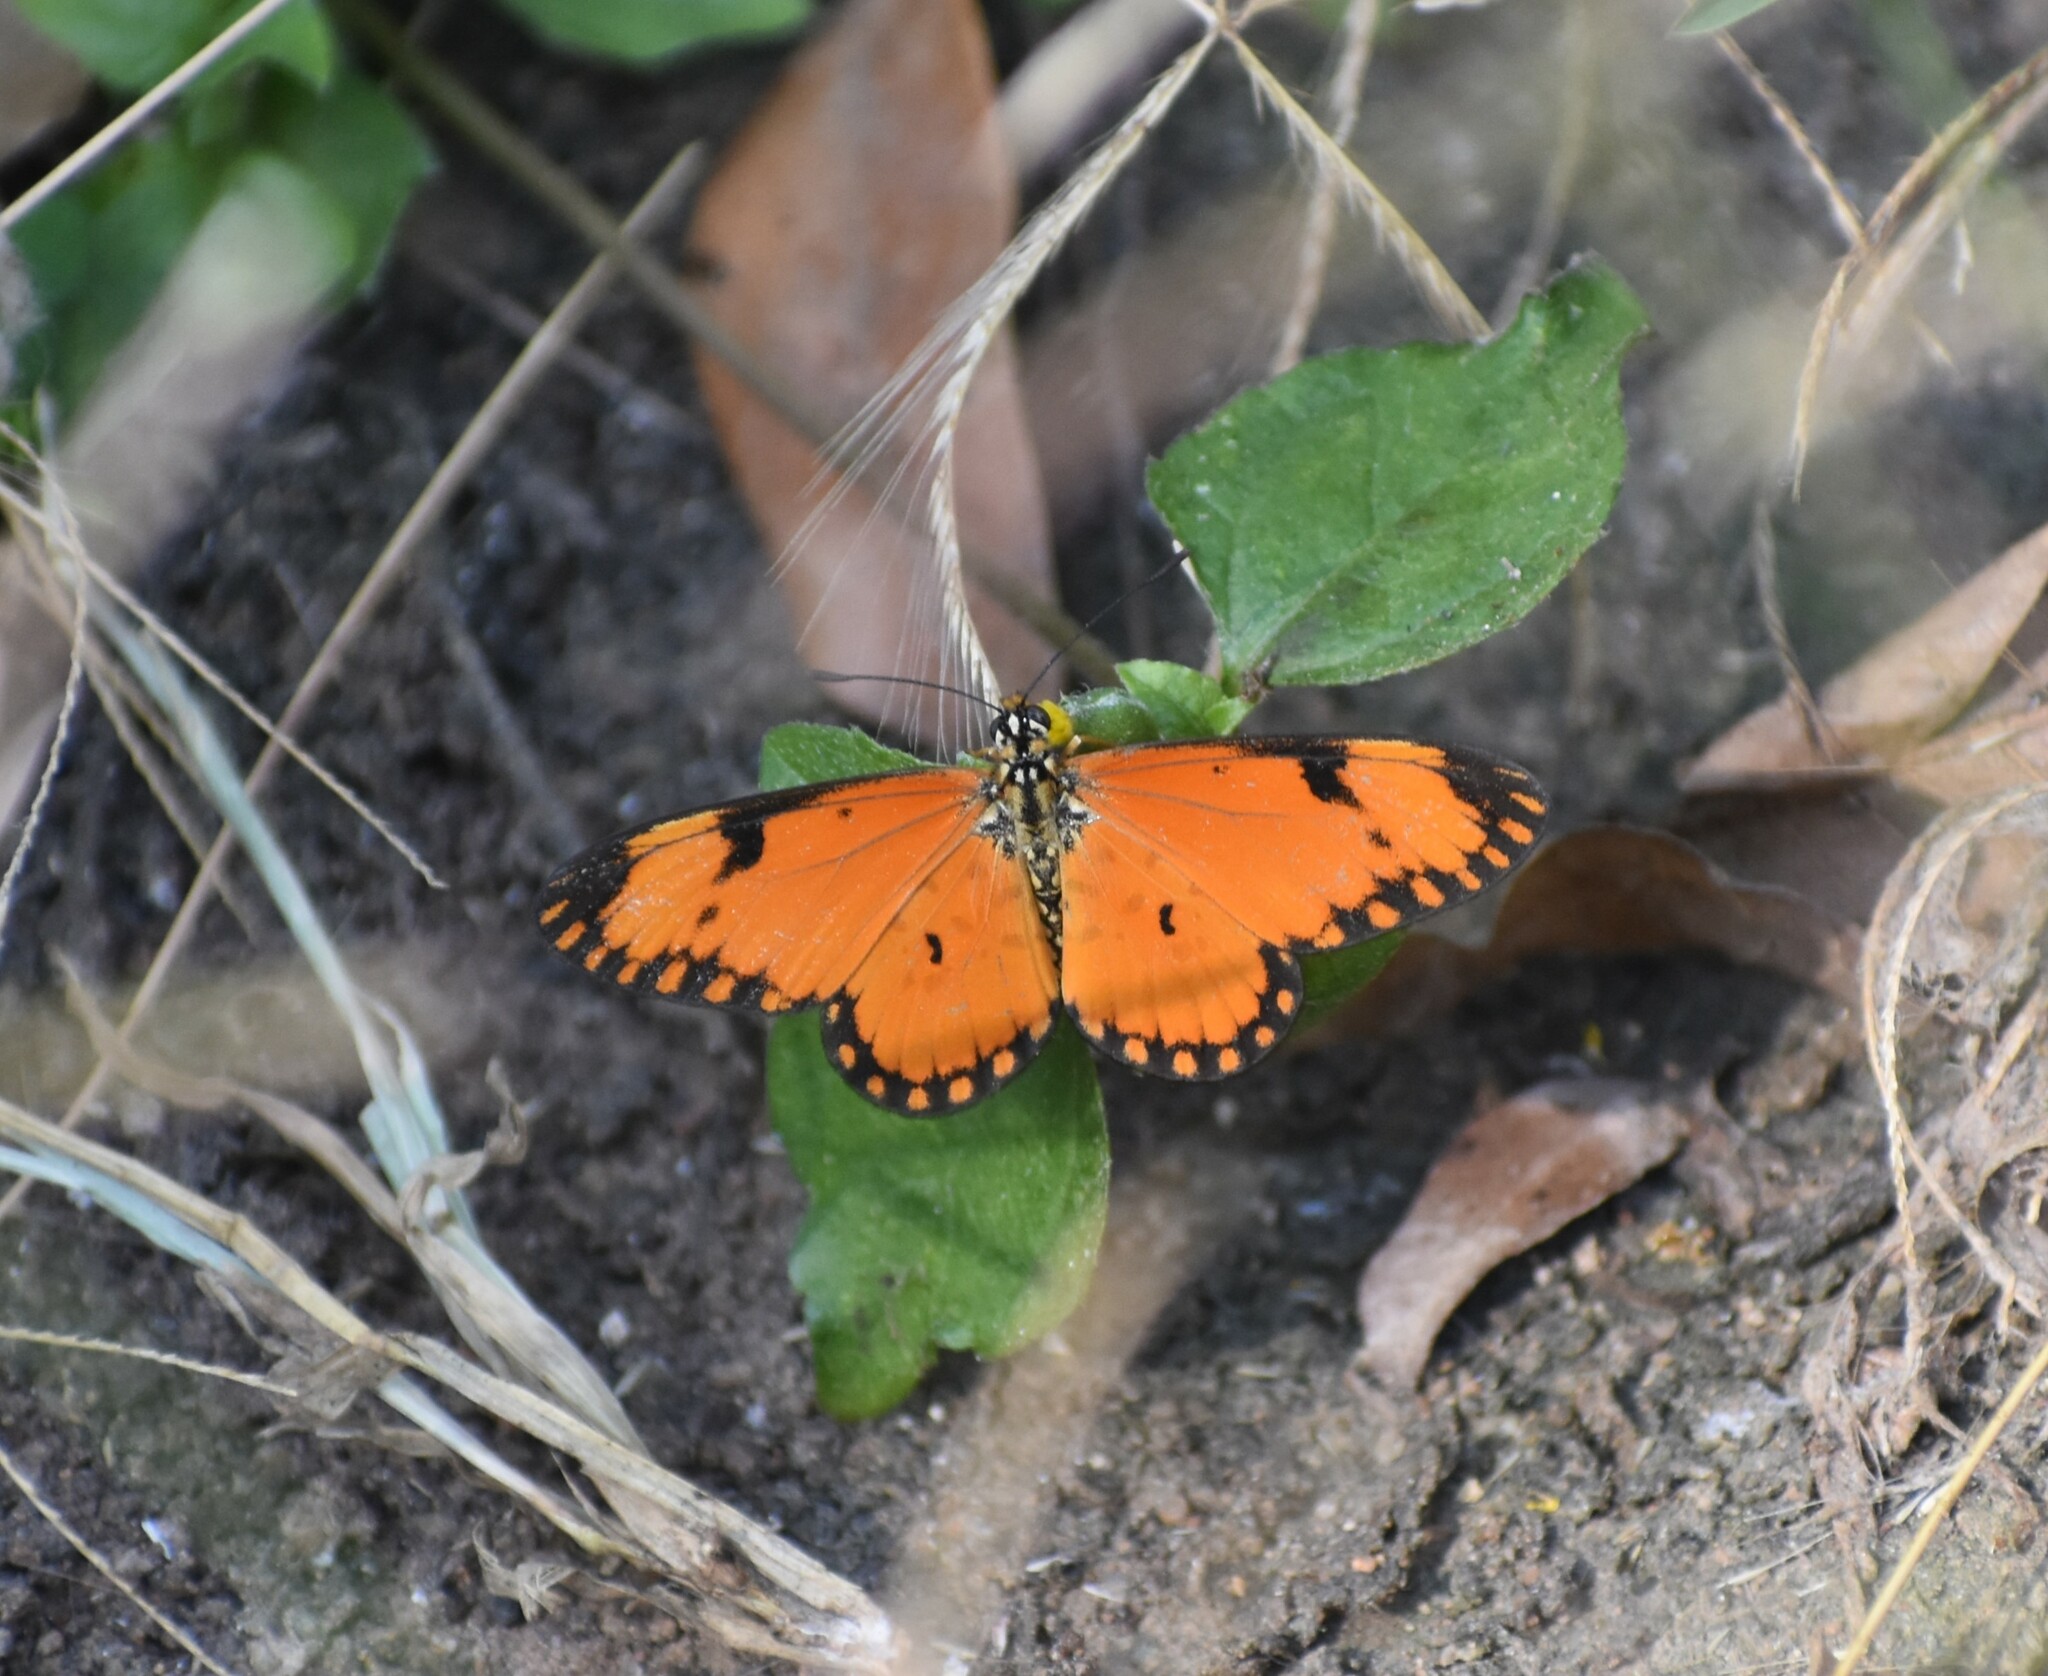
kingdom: Animalia
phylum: Arthropoda
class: Insecta
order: Lepidoptera
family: Nymphalidae
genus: Acraea
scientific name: Acraea Telchinia serena
